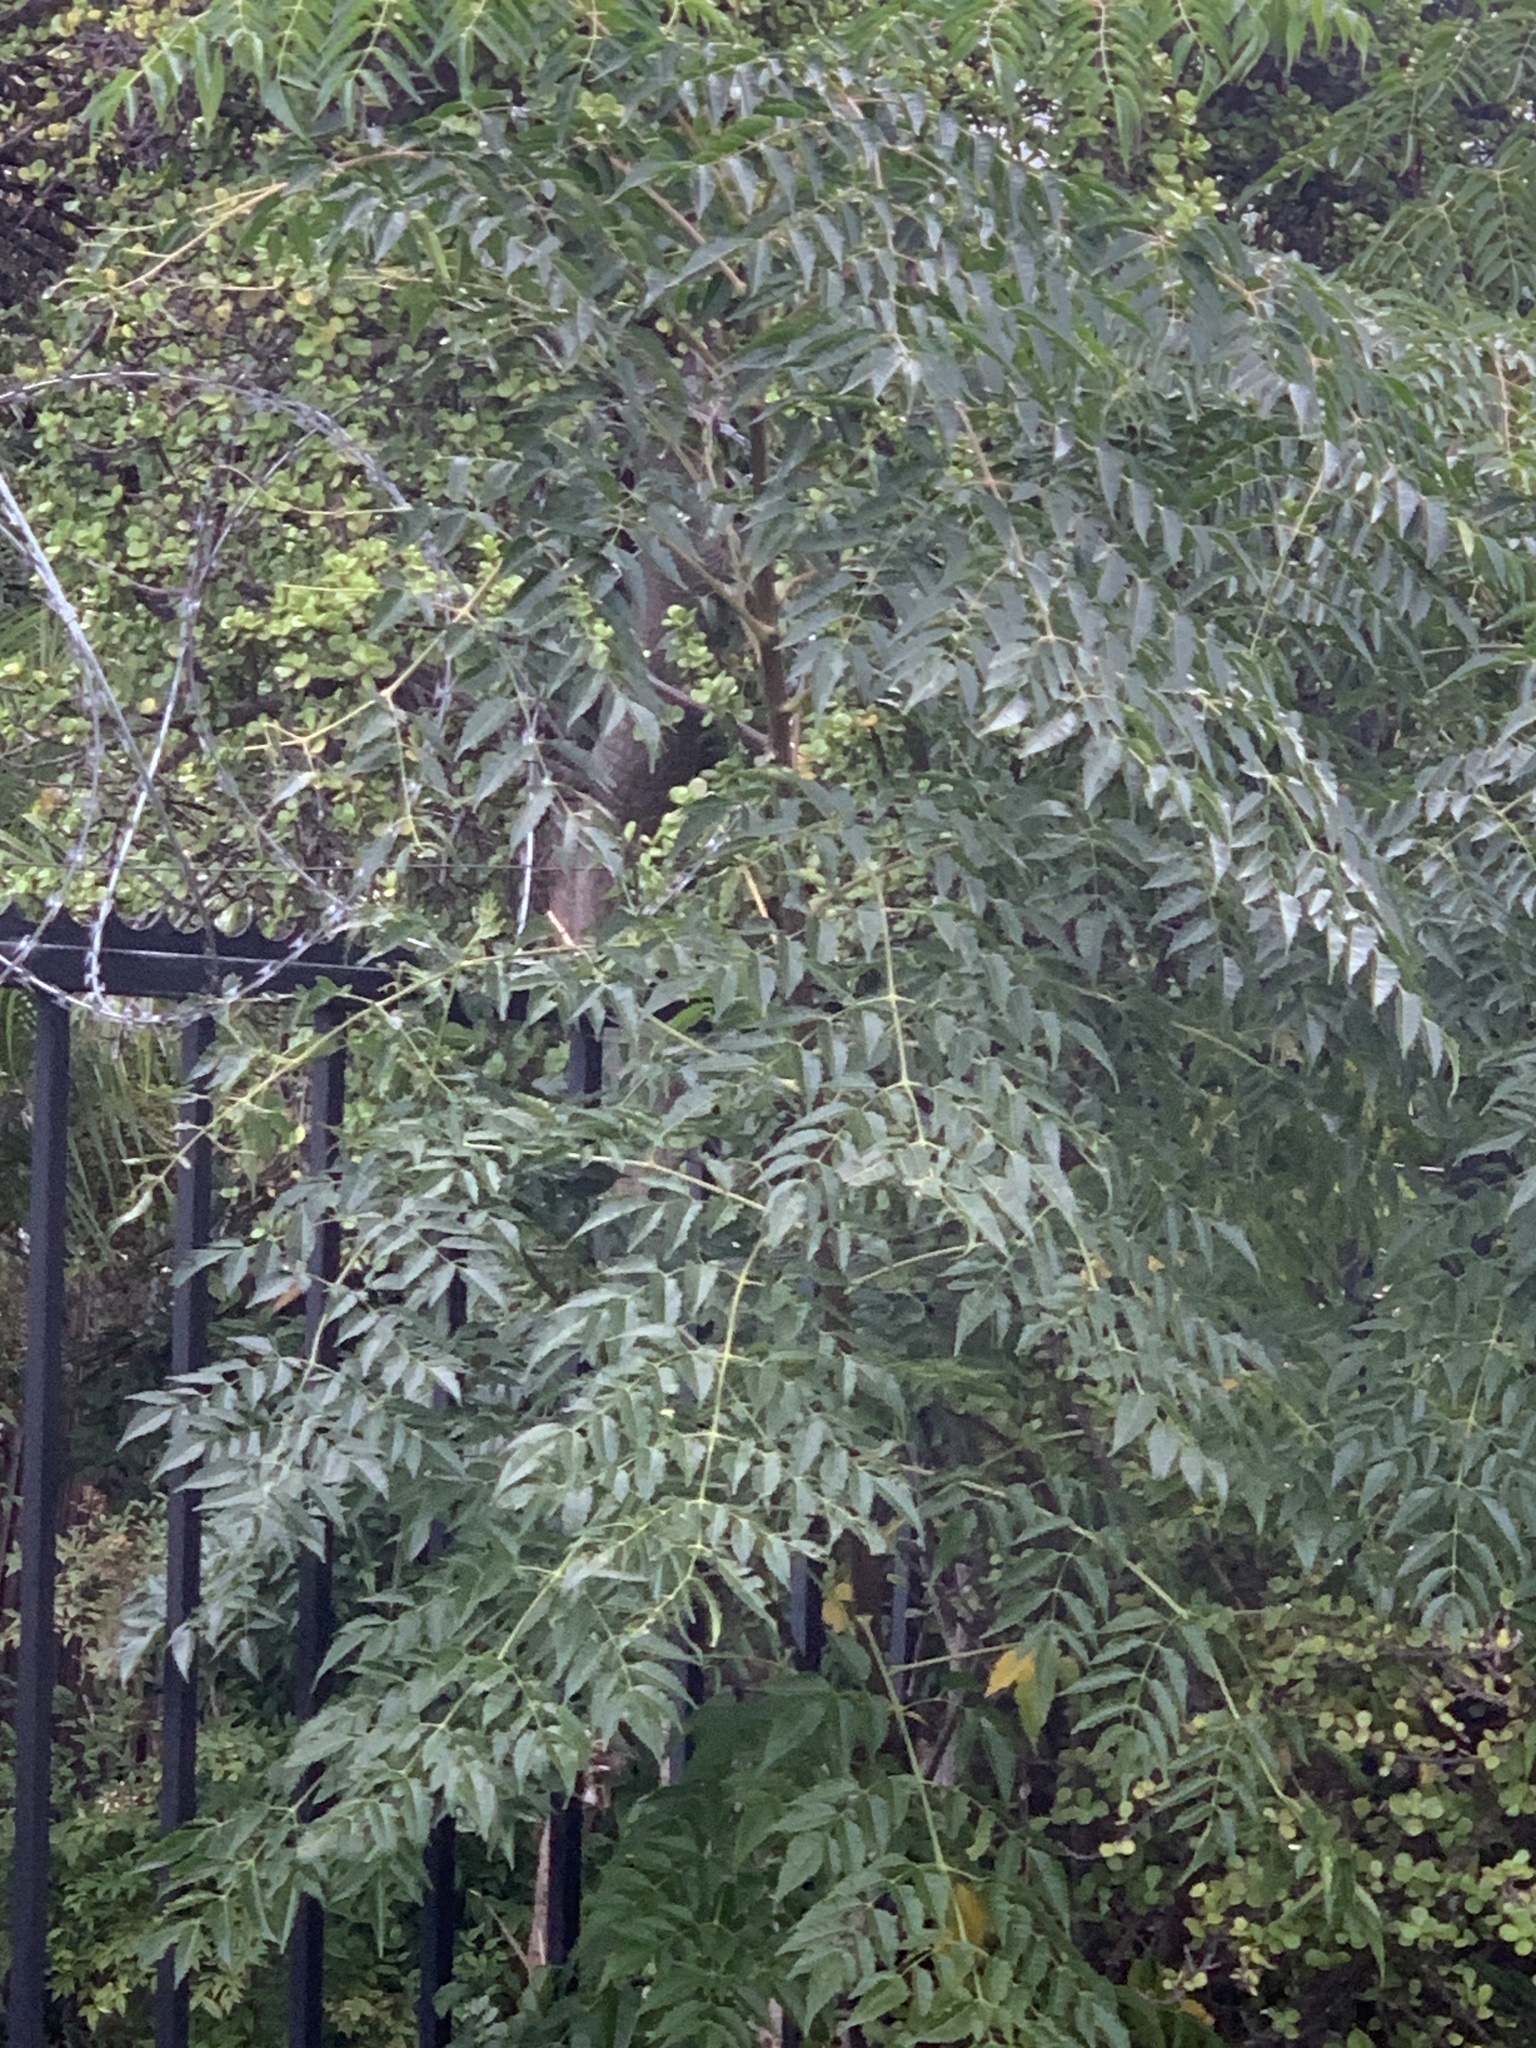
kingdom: Plantae
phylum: Tracheophyta
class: Magnoliopsida
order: Sapindales
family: Meliaceae
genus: Melia
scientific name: Melia azedarach
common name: Chinaberrytree
